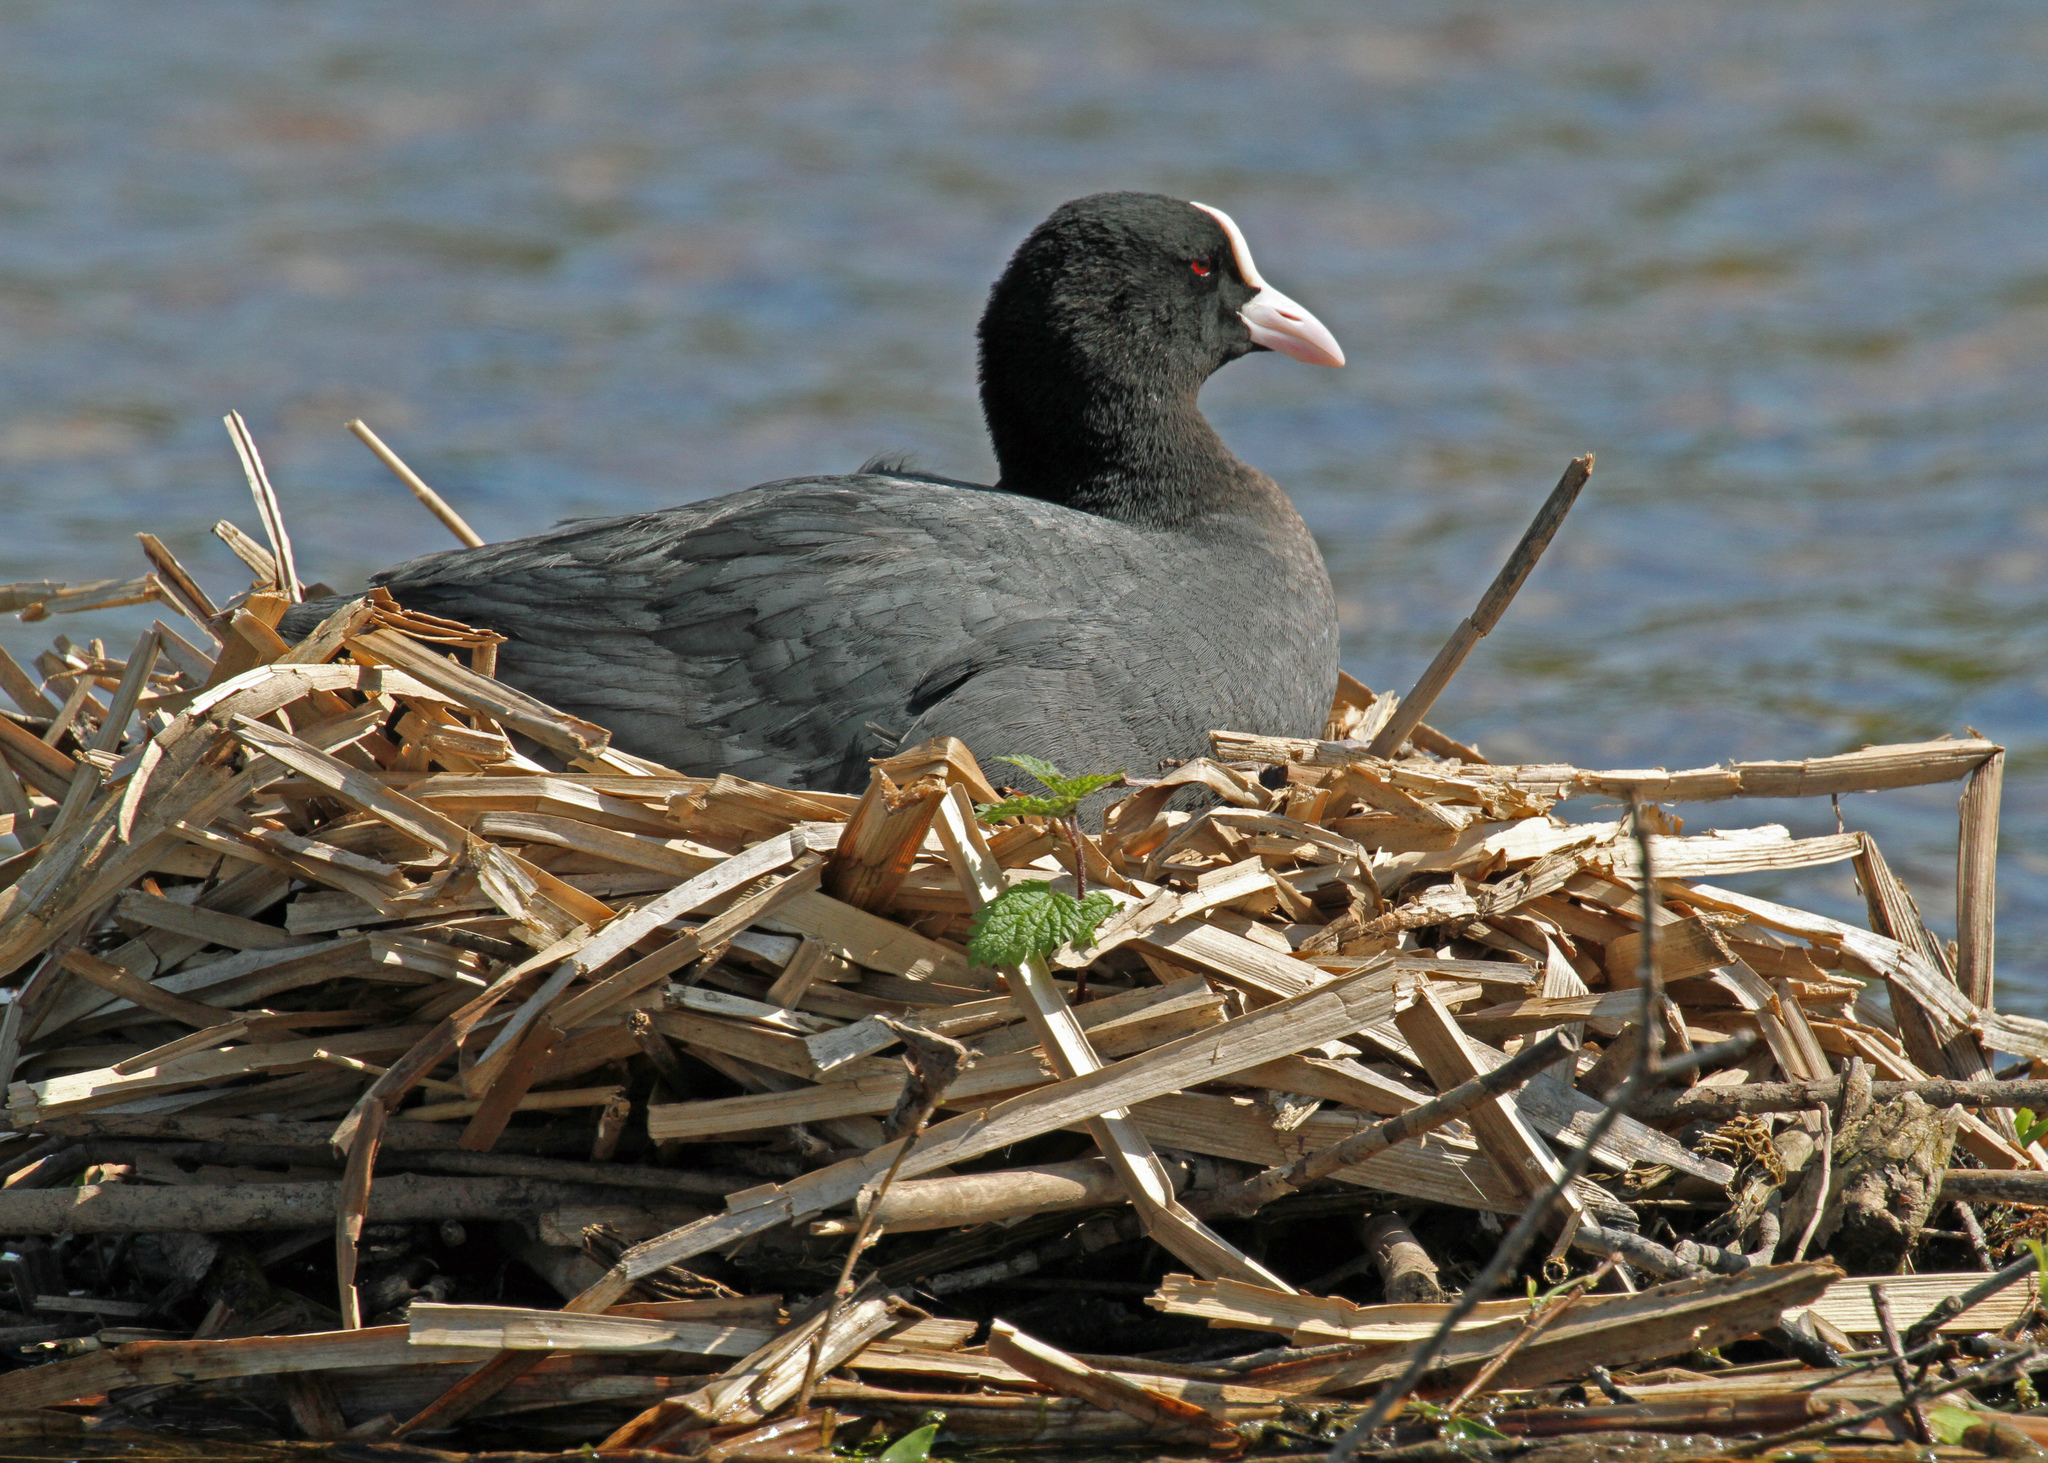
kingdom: Animalia
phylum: Chordata
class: Aves
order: Gruiformes
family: Rallidae
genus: Fulica
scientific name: Fulica atra
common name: Eurasian coot
